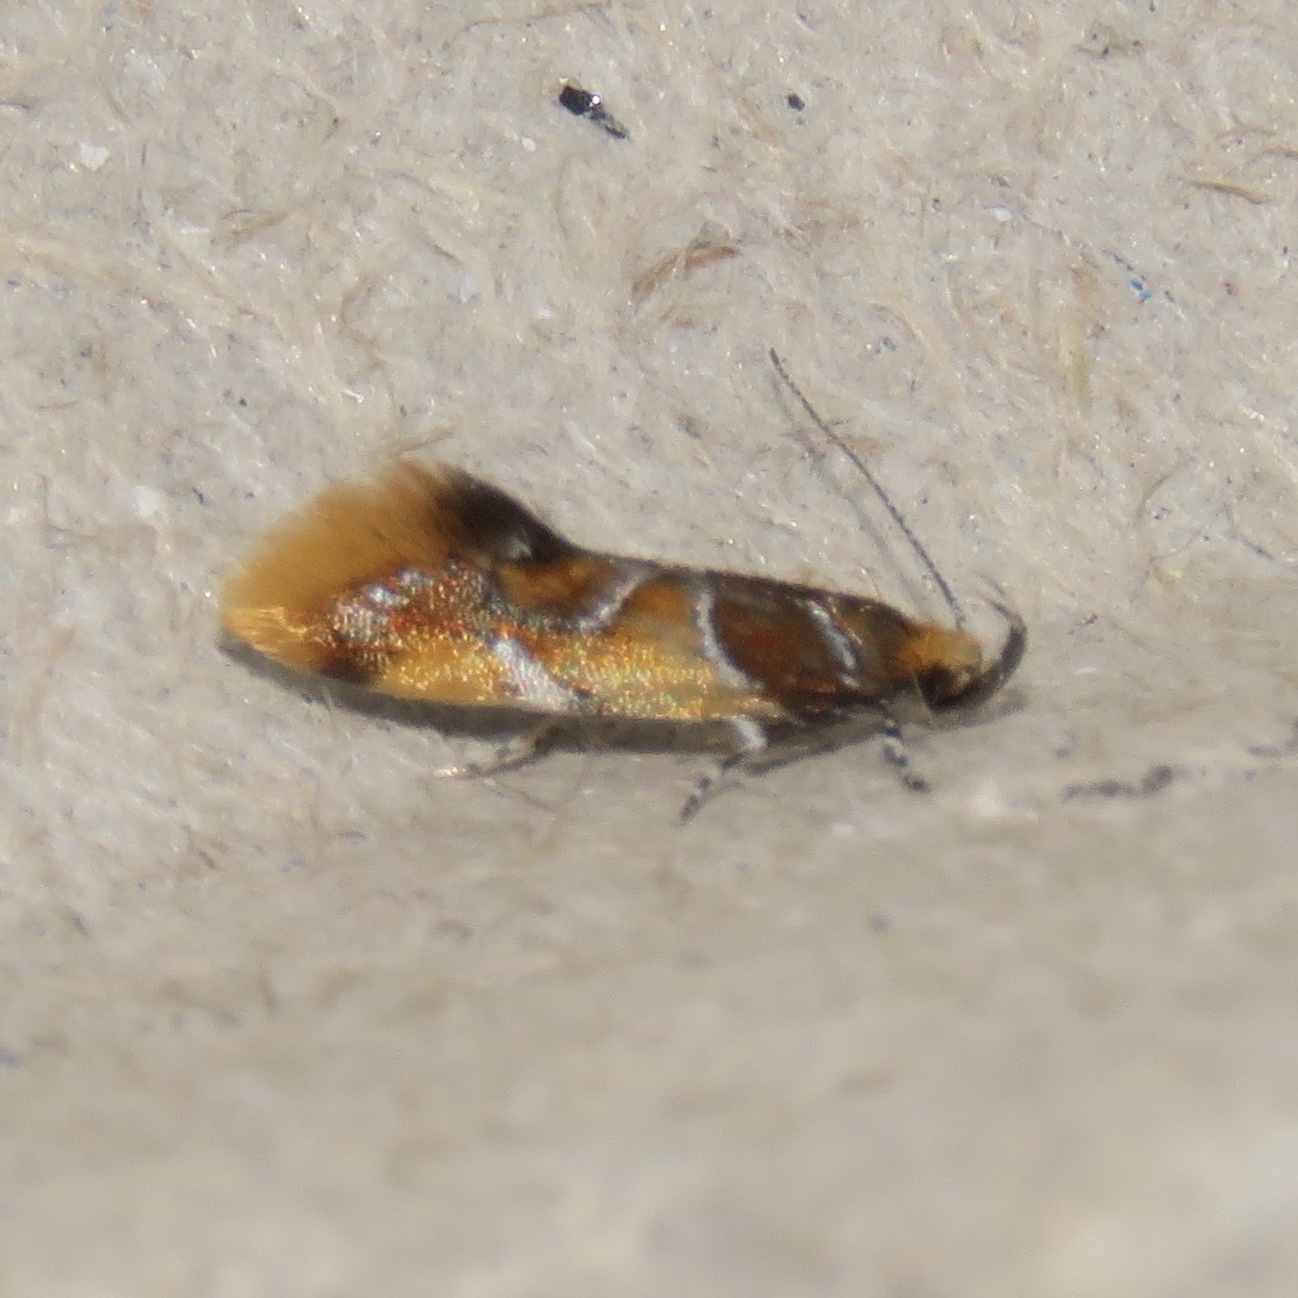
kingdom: Animalia
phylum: Arthropoda
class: Insecta
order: Lepidoptera
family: Oecophoridae
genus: Callima
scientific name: Callima argenticinctella
